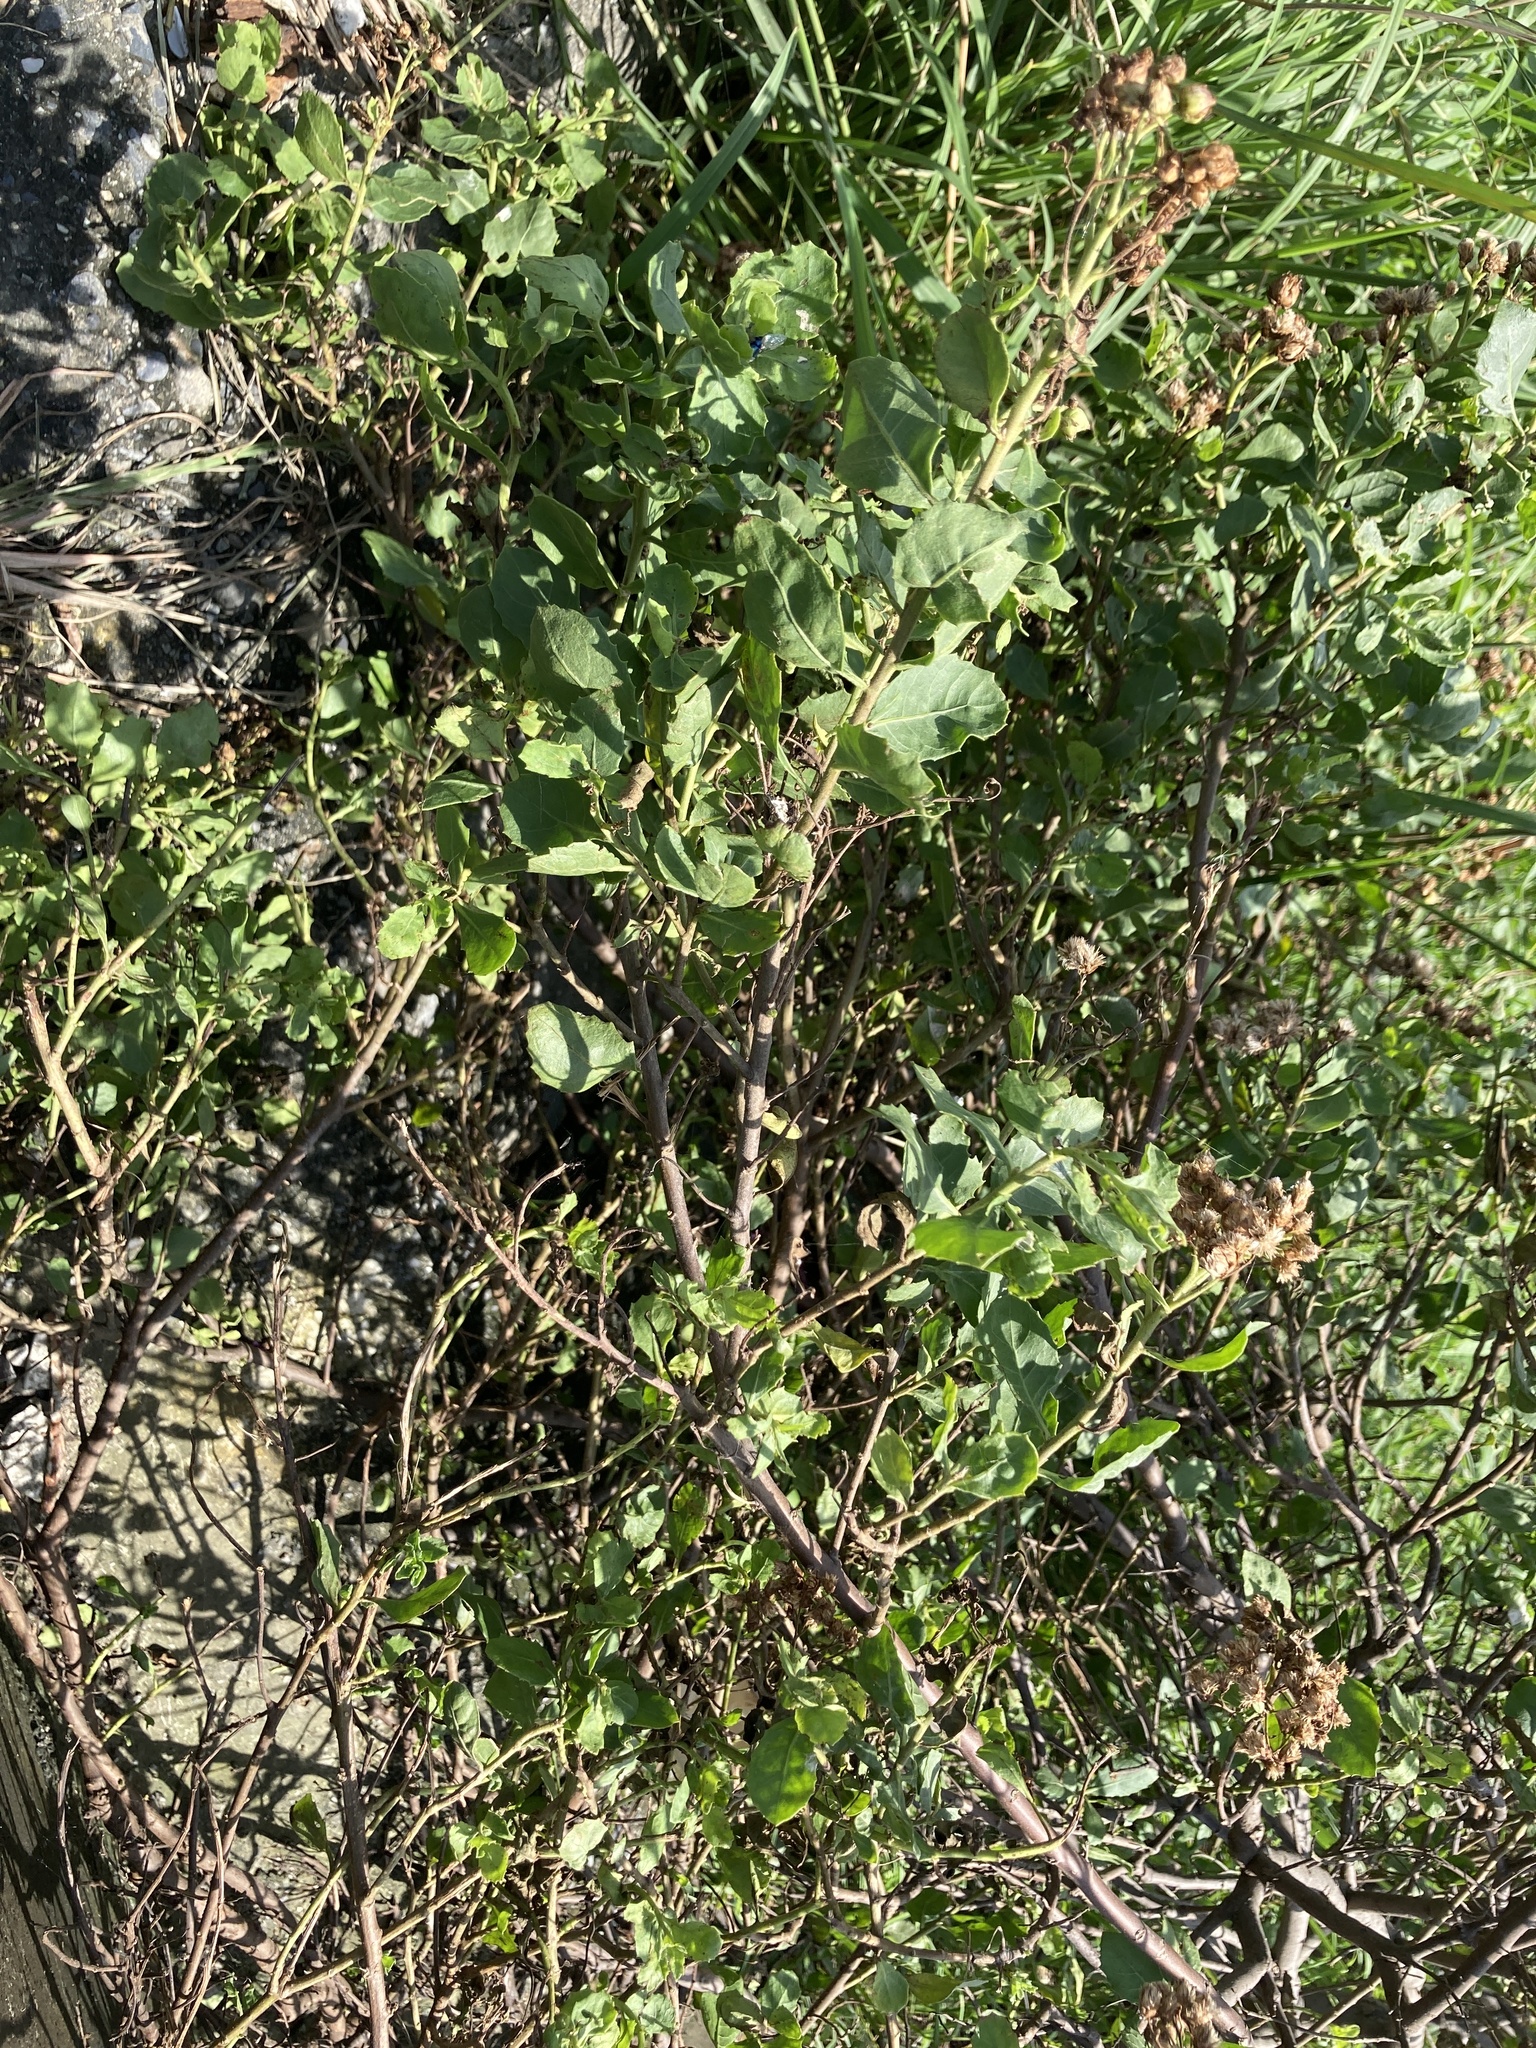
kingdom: Plantae
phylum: Tracheophyta
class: Magnoliopsida
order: Asterales
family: Asteraceae
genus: Pluchea
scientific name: Pluchea indica
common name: Indian fleabane
